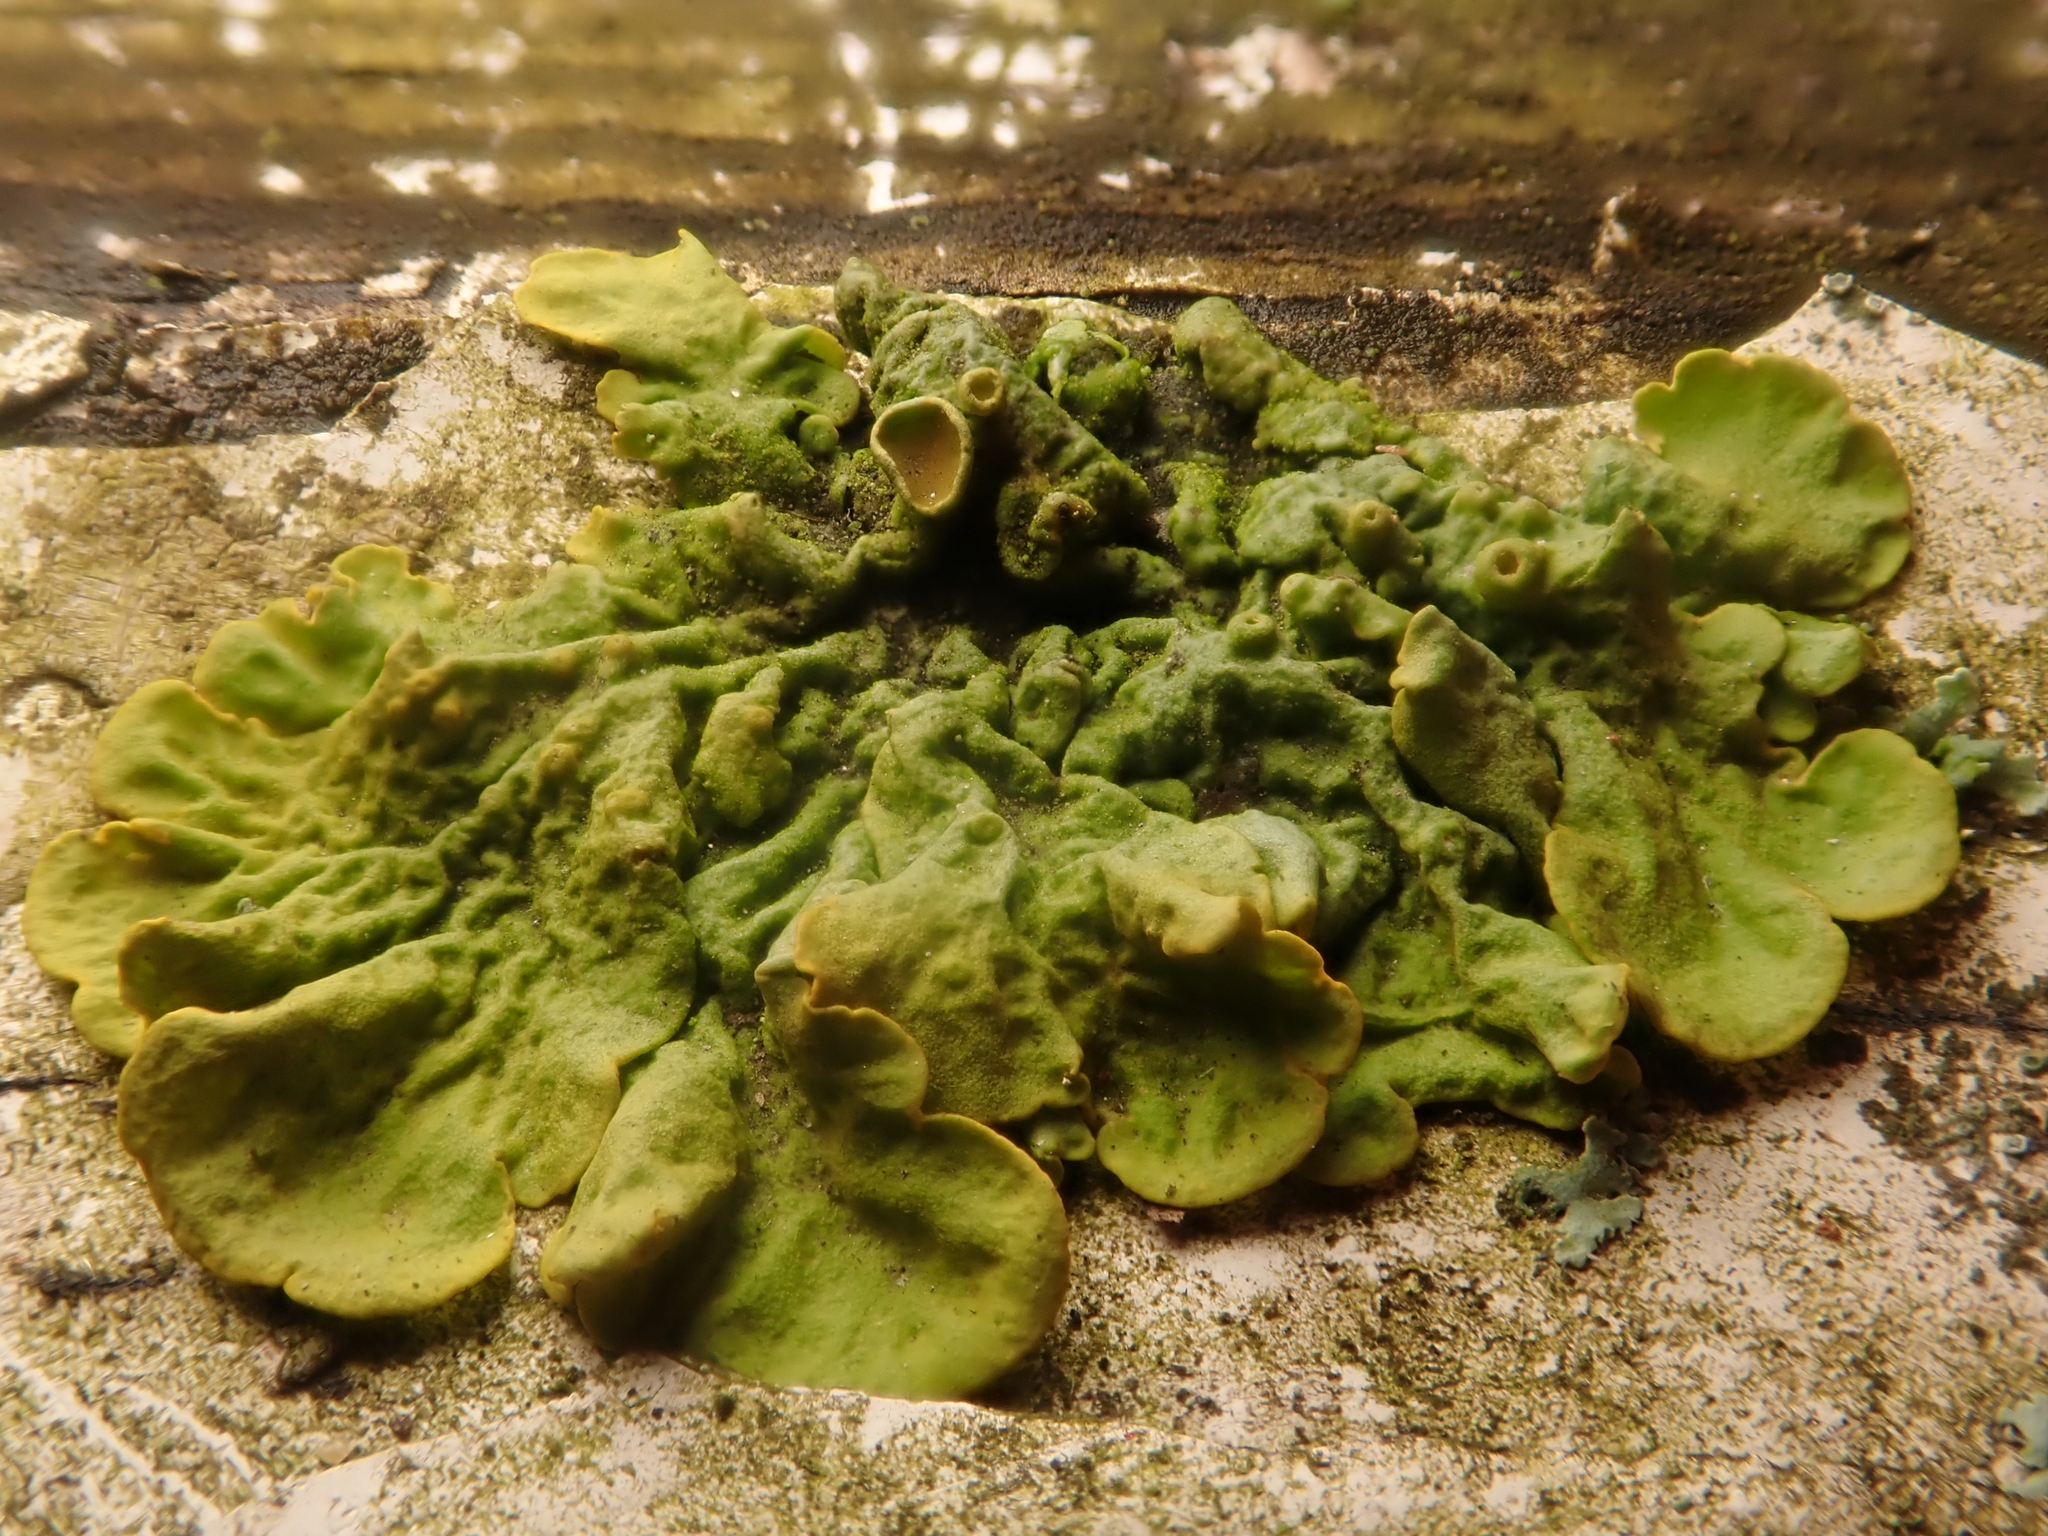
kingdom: Fungi
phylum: Ascomycota
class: Lecanoromycetes
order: Teloschistales
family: Teloschistaceae
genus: Xanthoria
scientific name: Xanthoria parietina
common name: Common orange lichen
